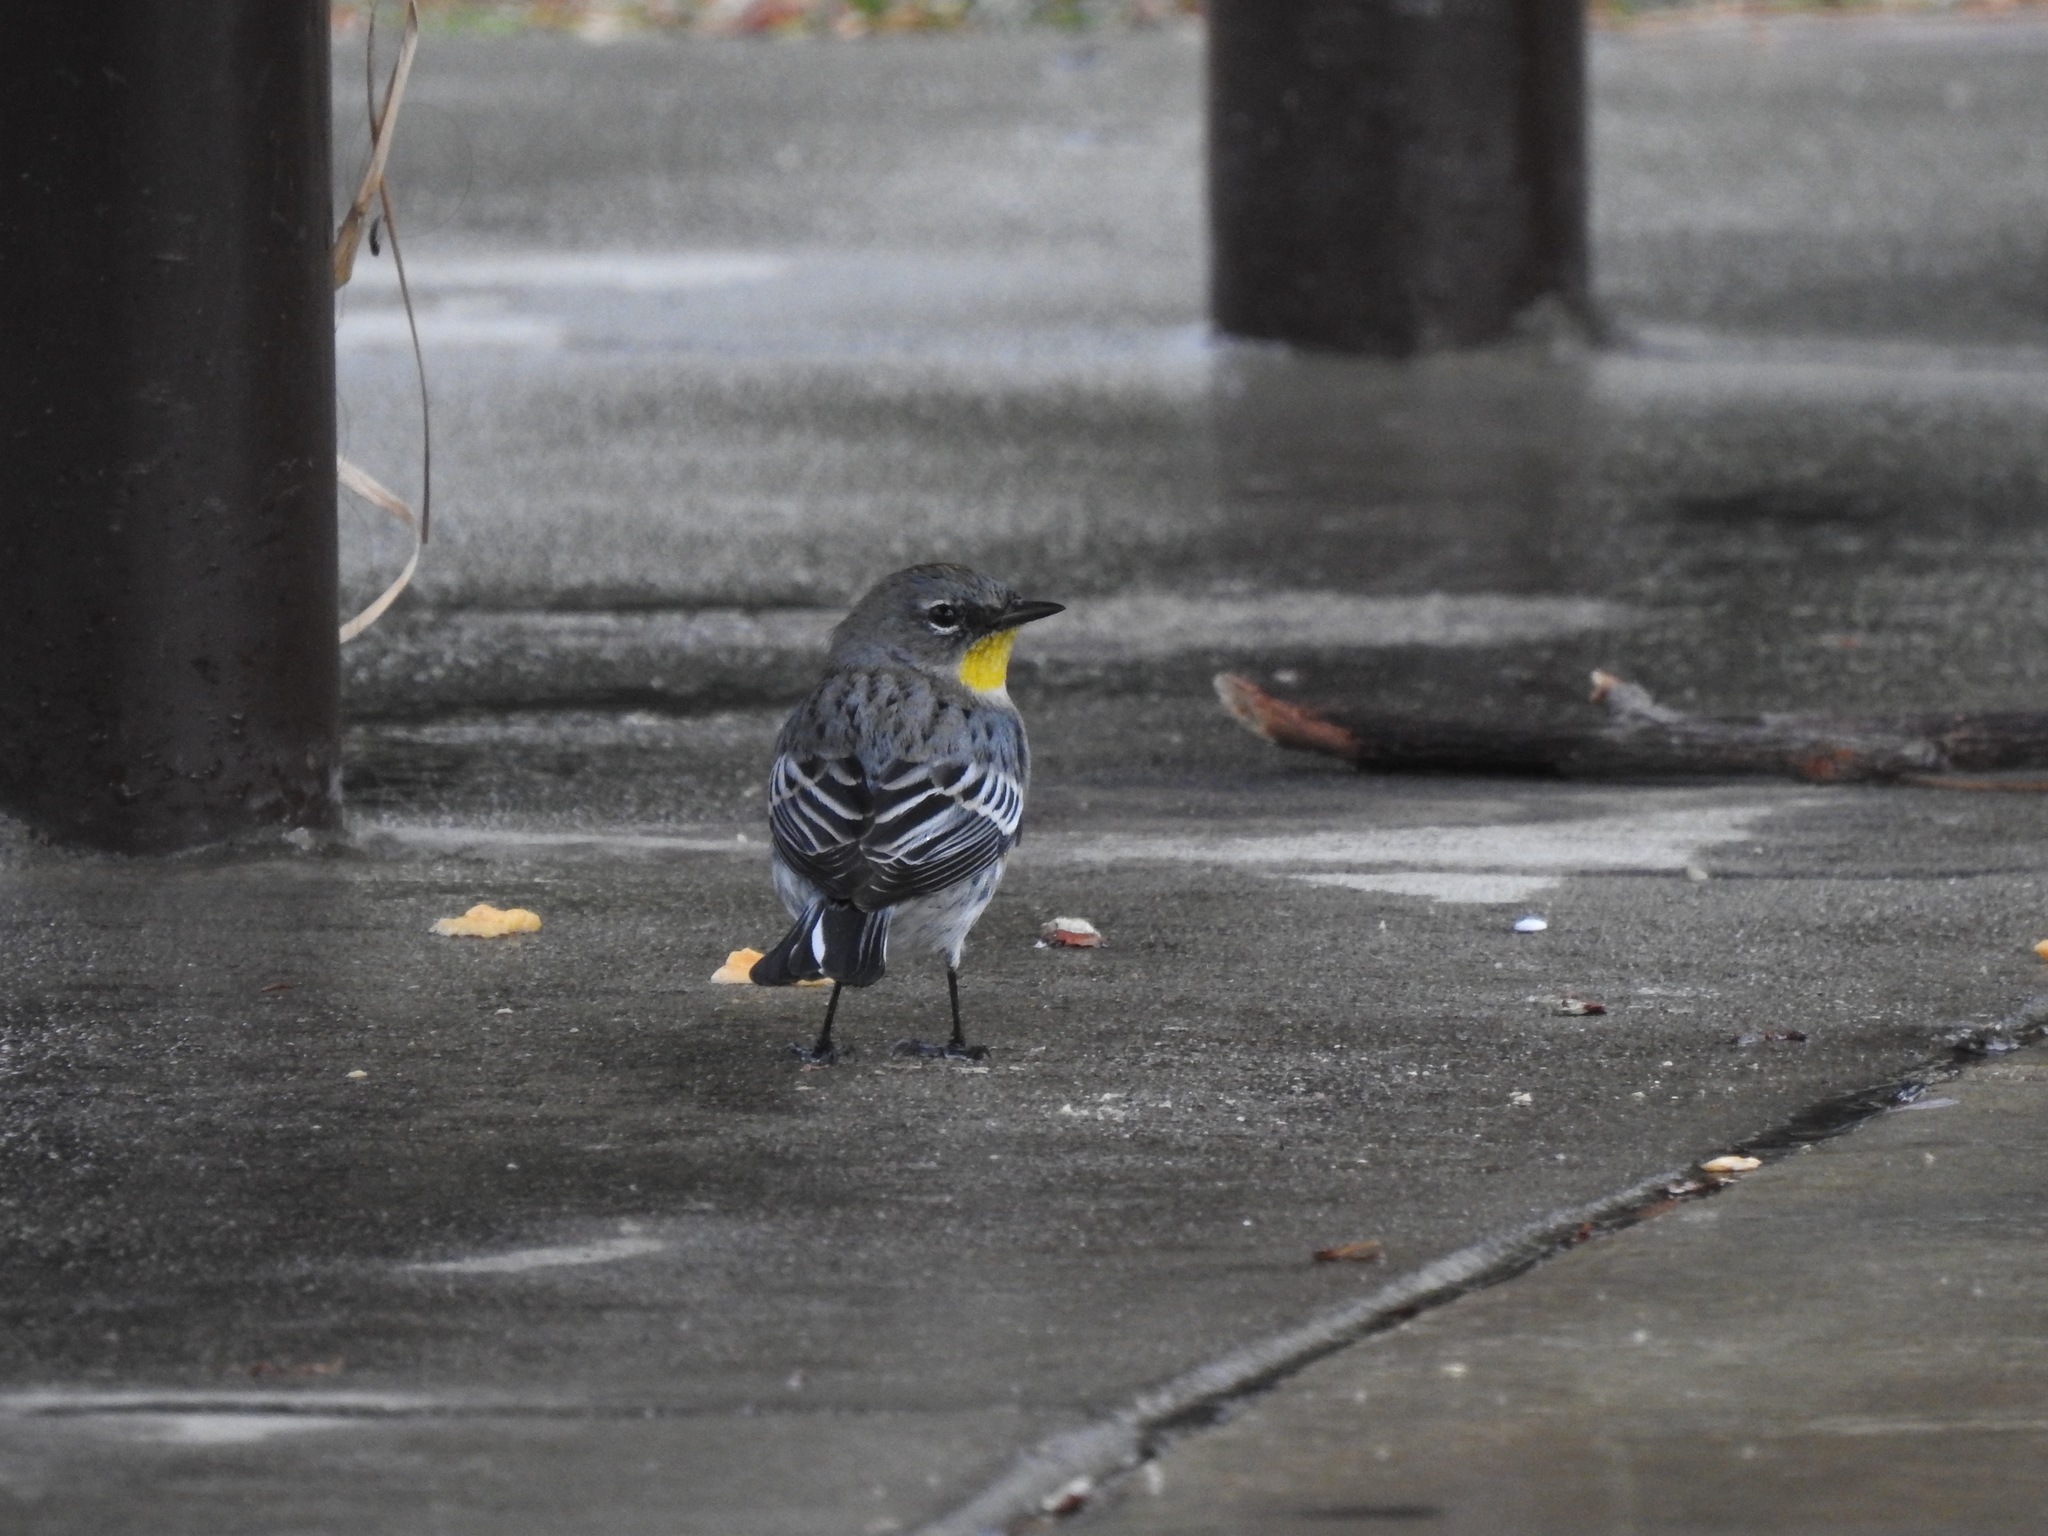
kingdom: Animalia
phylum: Chordata
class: Aves
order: Passeriformes
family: Parulidae
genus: Setophaga
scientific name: Setophaga auduboni
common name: Audubon's warbler
